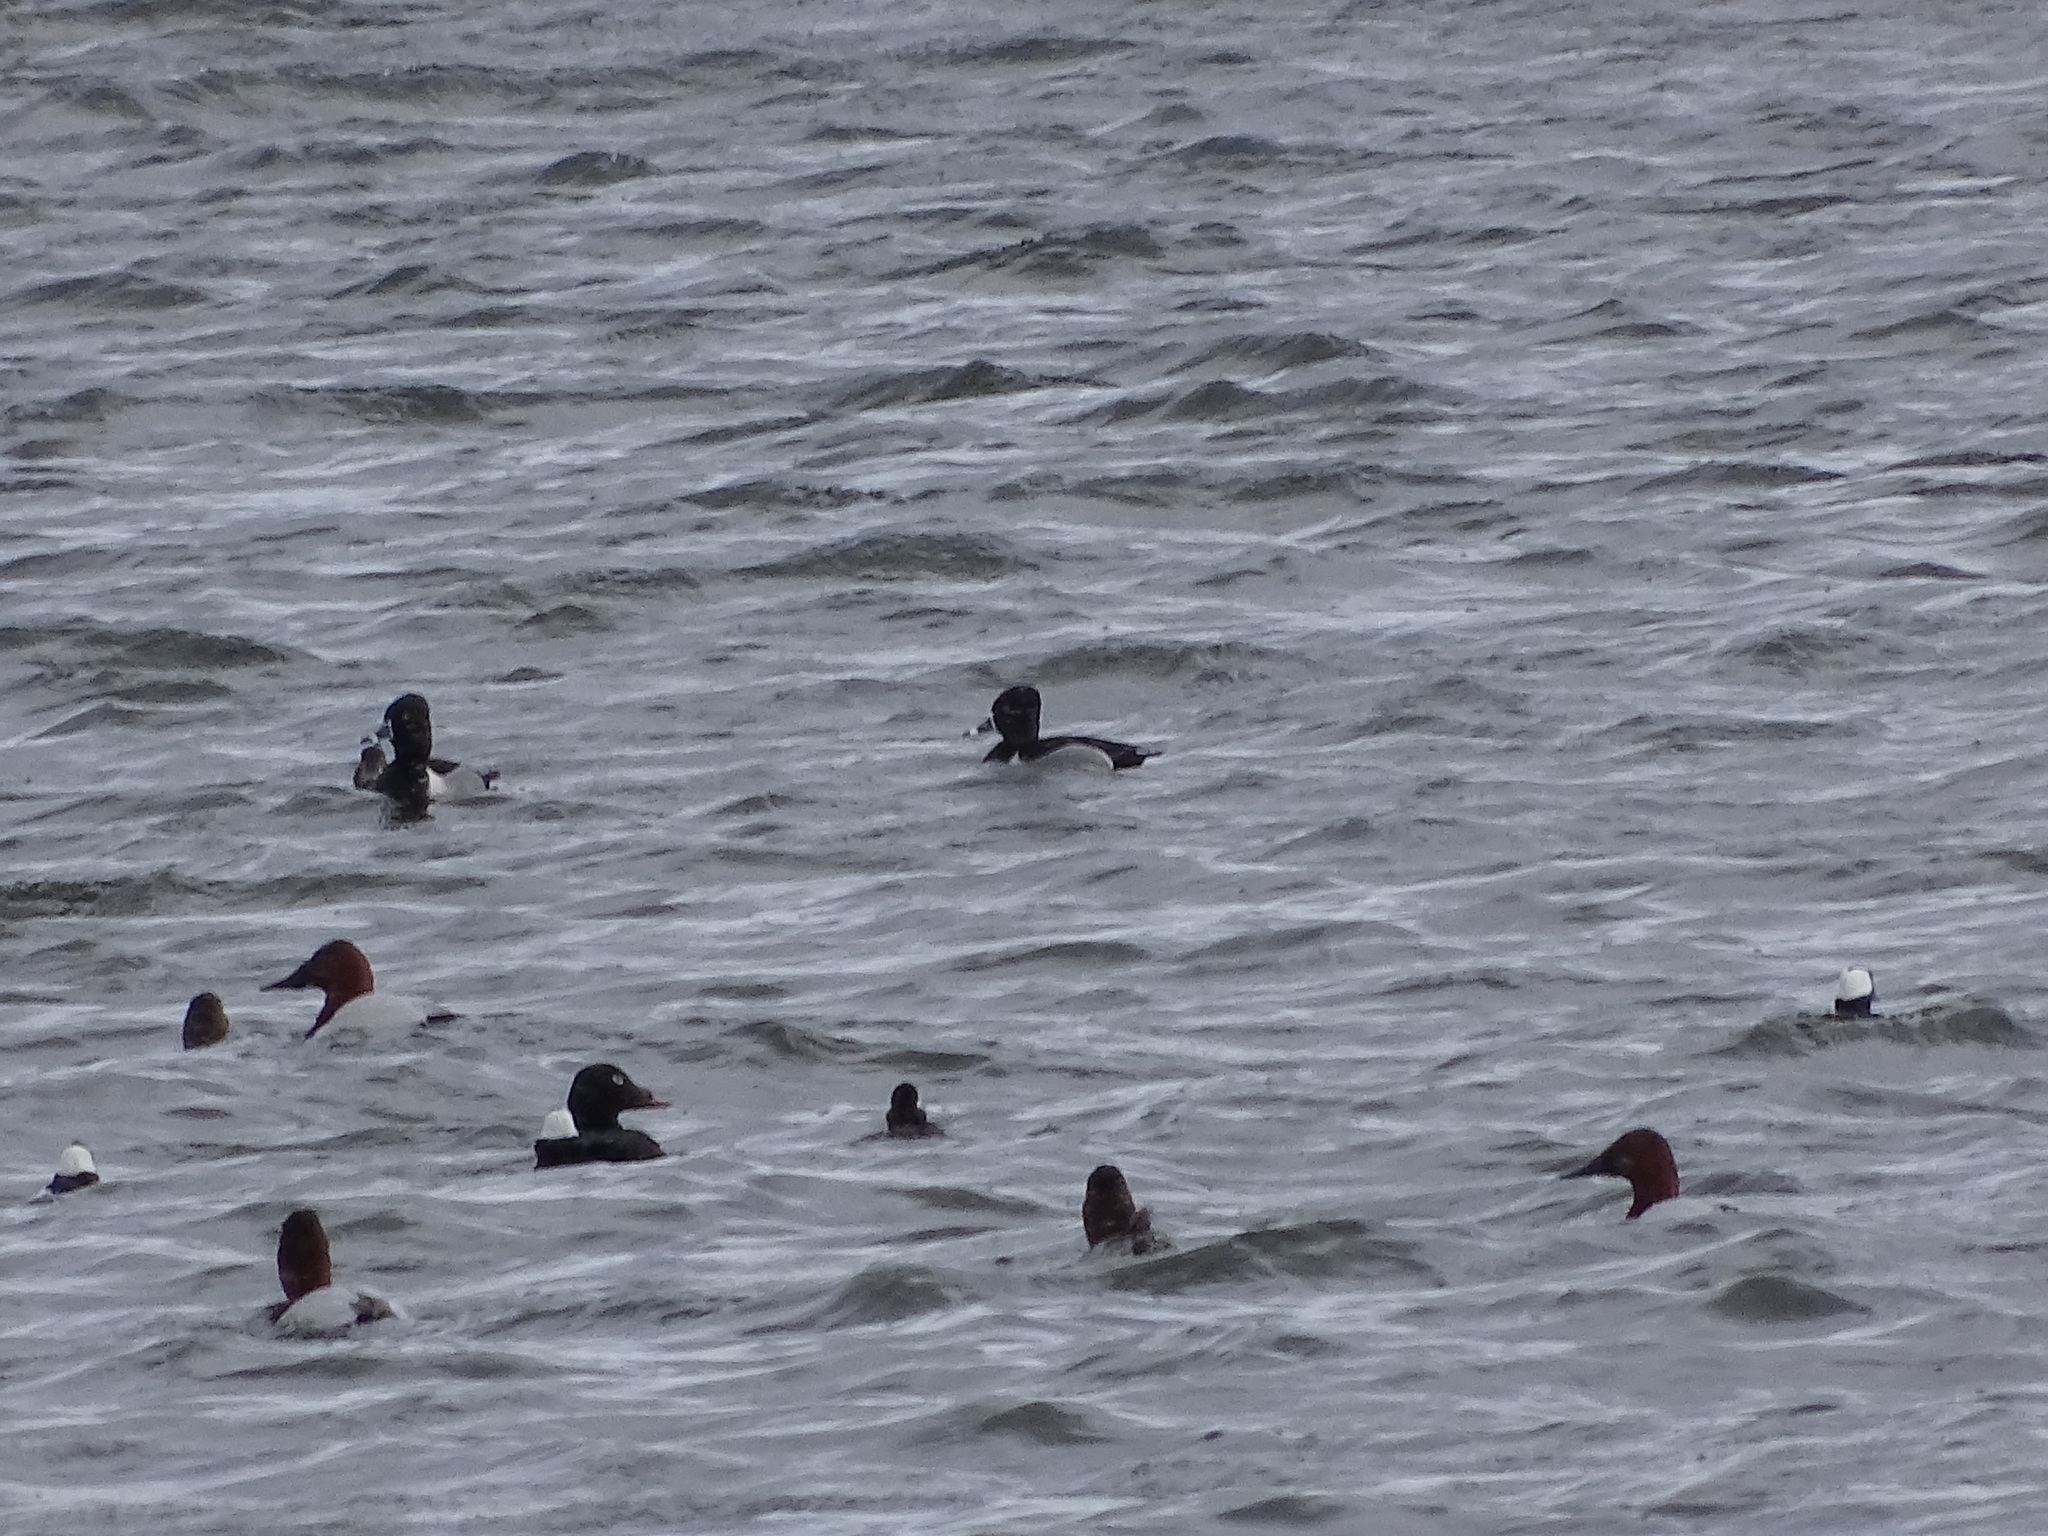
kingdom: Animalia
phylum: Chordata
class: Aves
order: Anseriformes
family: Anatidae
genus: Aythya
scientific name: Aythya collaris
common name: Ring-necked duck
